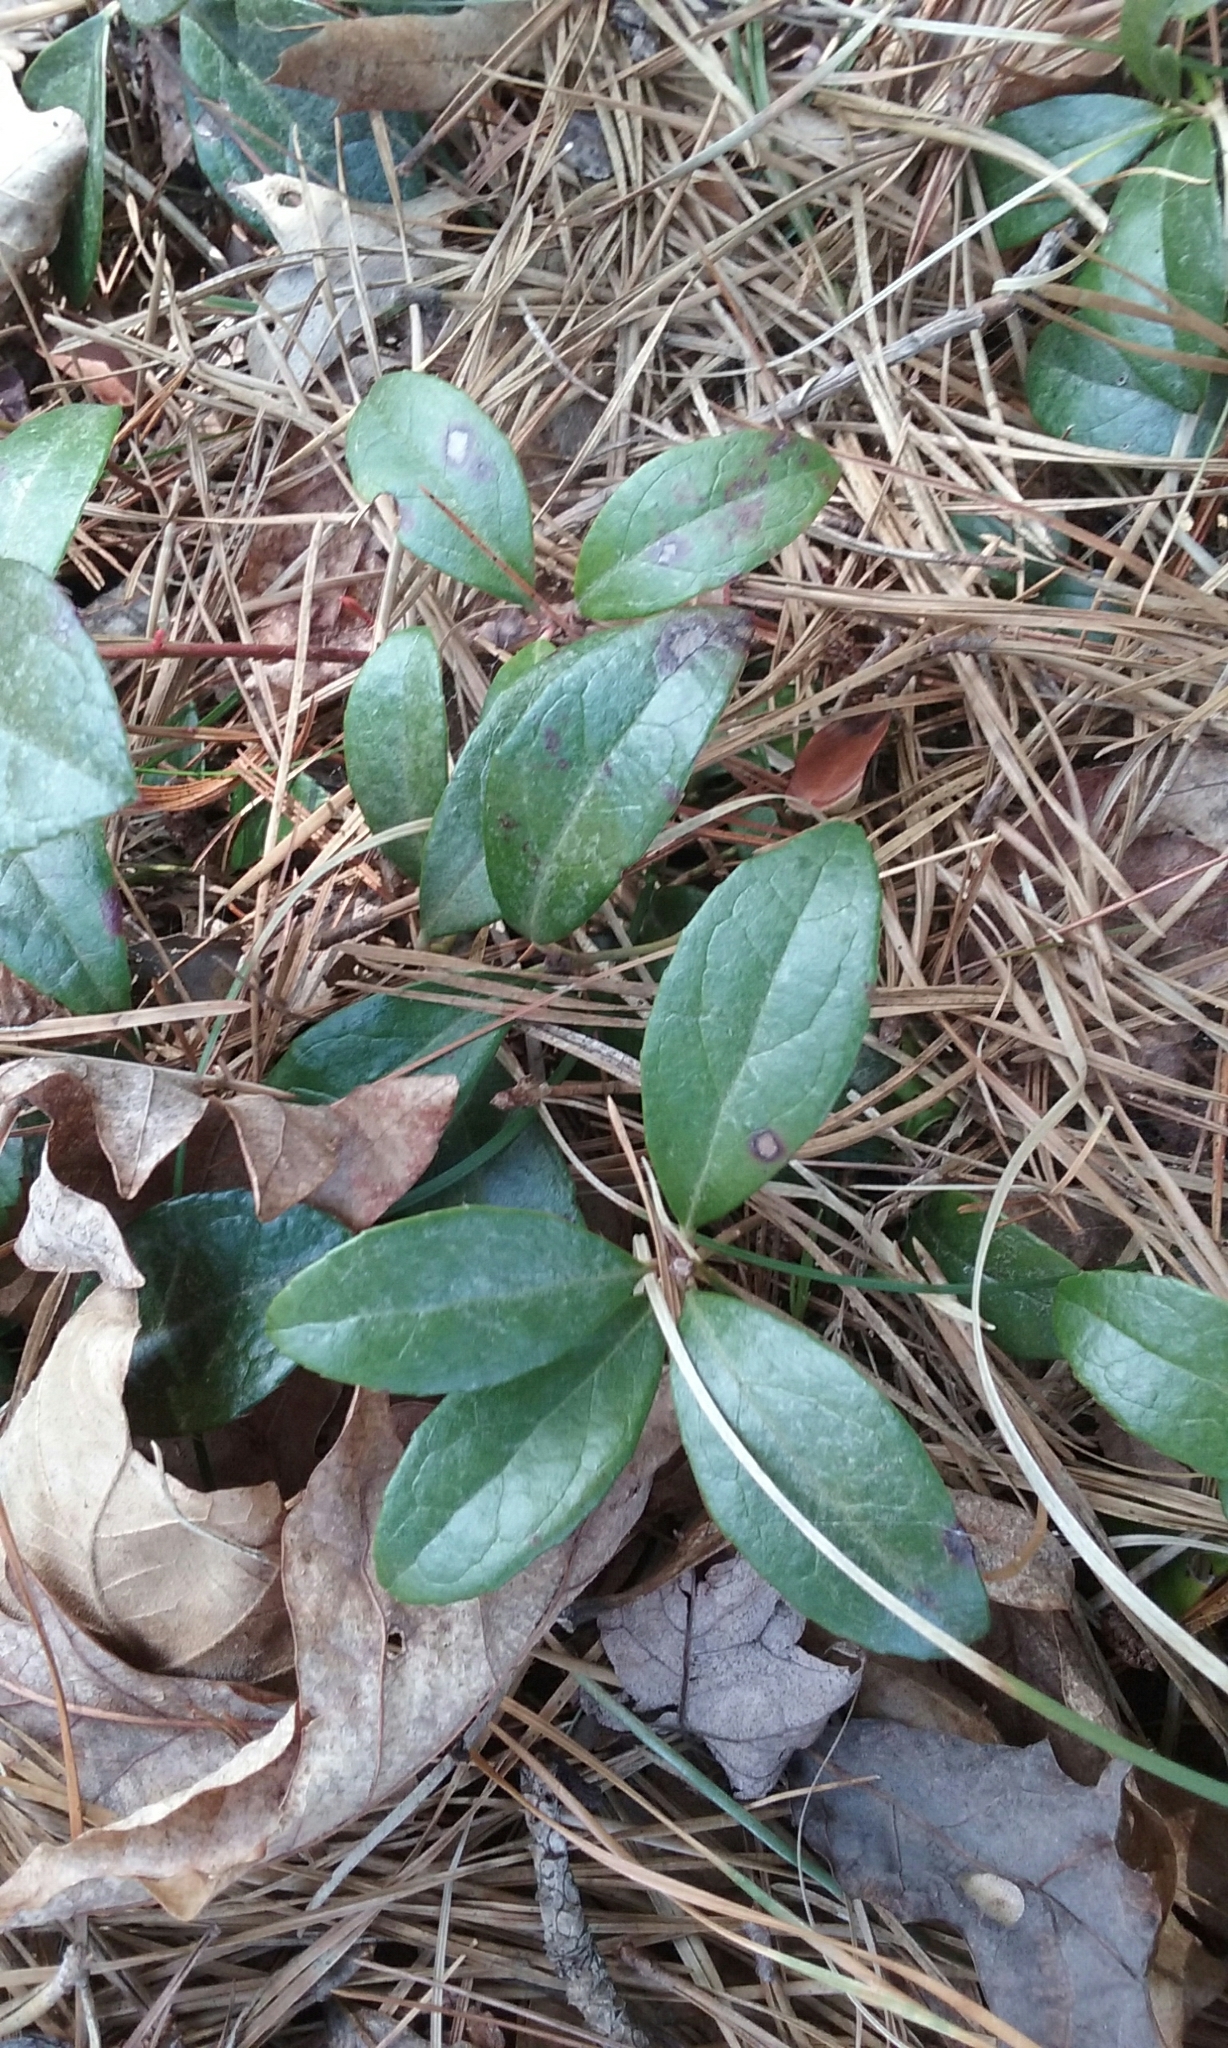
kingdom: Plantae
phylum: Tracheophyta
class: Magnoliopsida
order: Ericales
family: Ericaceae
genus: Gaultheria
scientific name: Gaultheria procumbens
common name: Checkerberry
